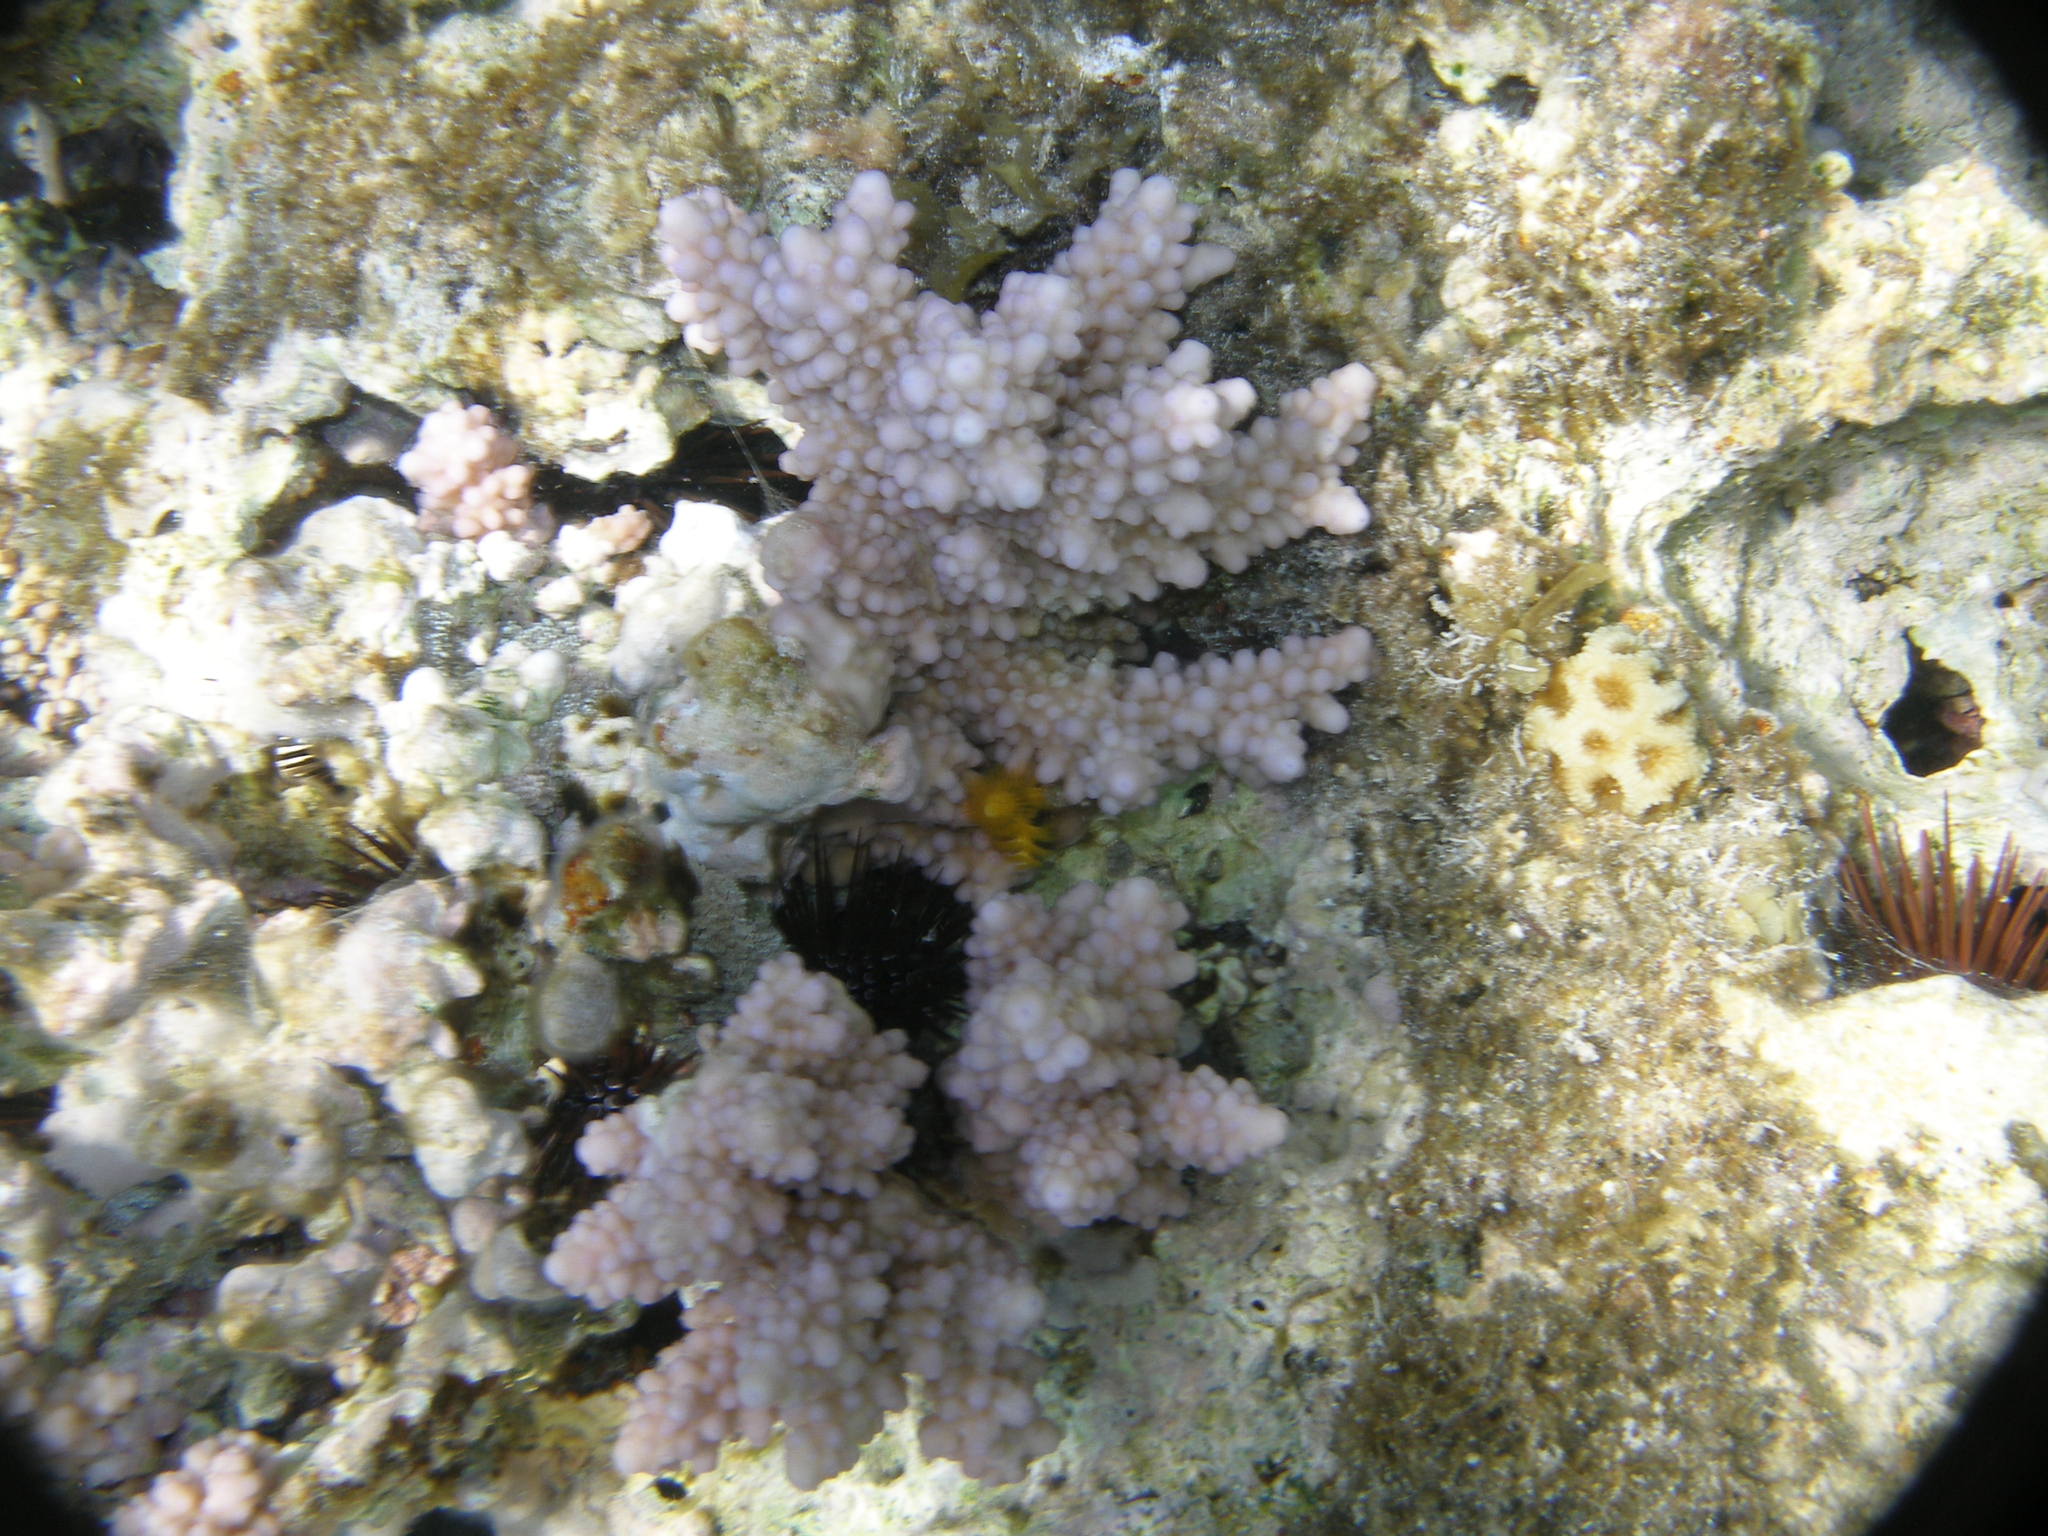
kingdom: Animalia
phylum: Cnidaria
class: Anthozoa
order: Scleractinia
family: Acroporidae
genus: Acropora
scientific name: Acropora hemprichii
